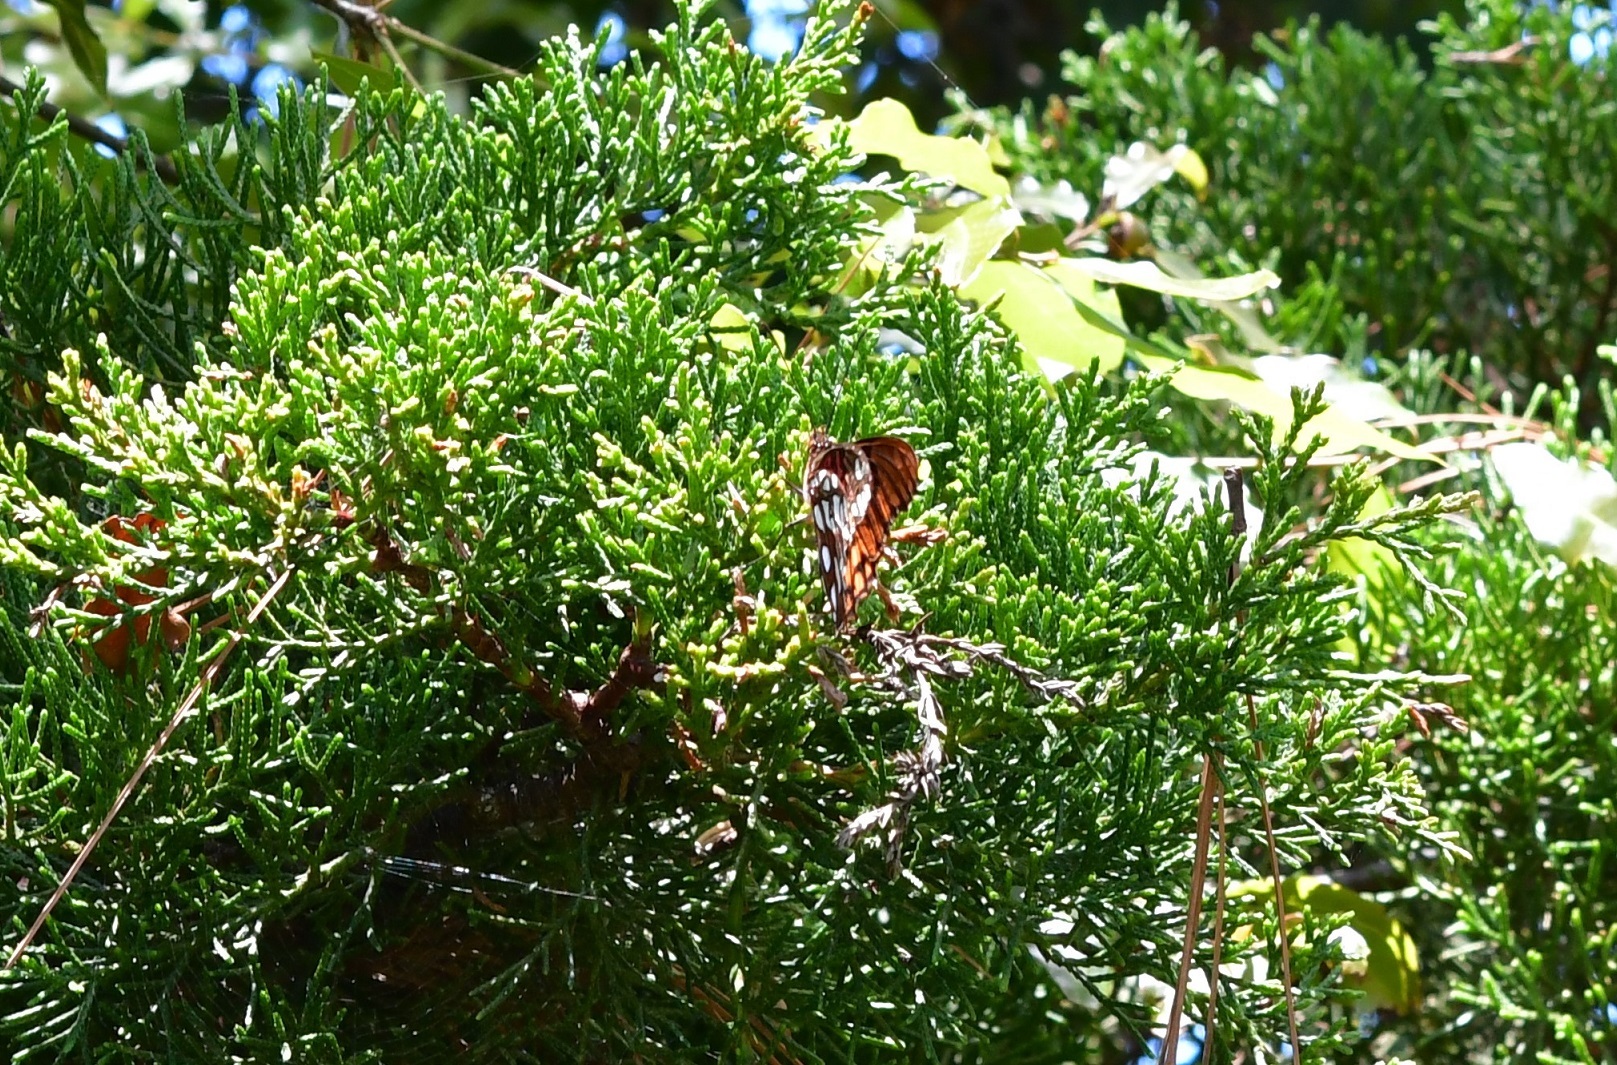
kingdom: Animalia
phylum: Arthropoda
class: Insecta
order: Lepidoptera
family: Nymphalidae
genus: Dione
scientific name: Dione moneta
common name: Mexican silverspot
